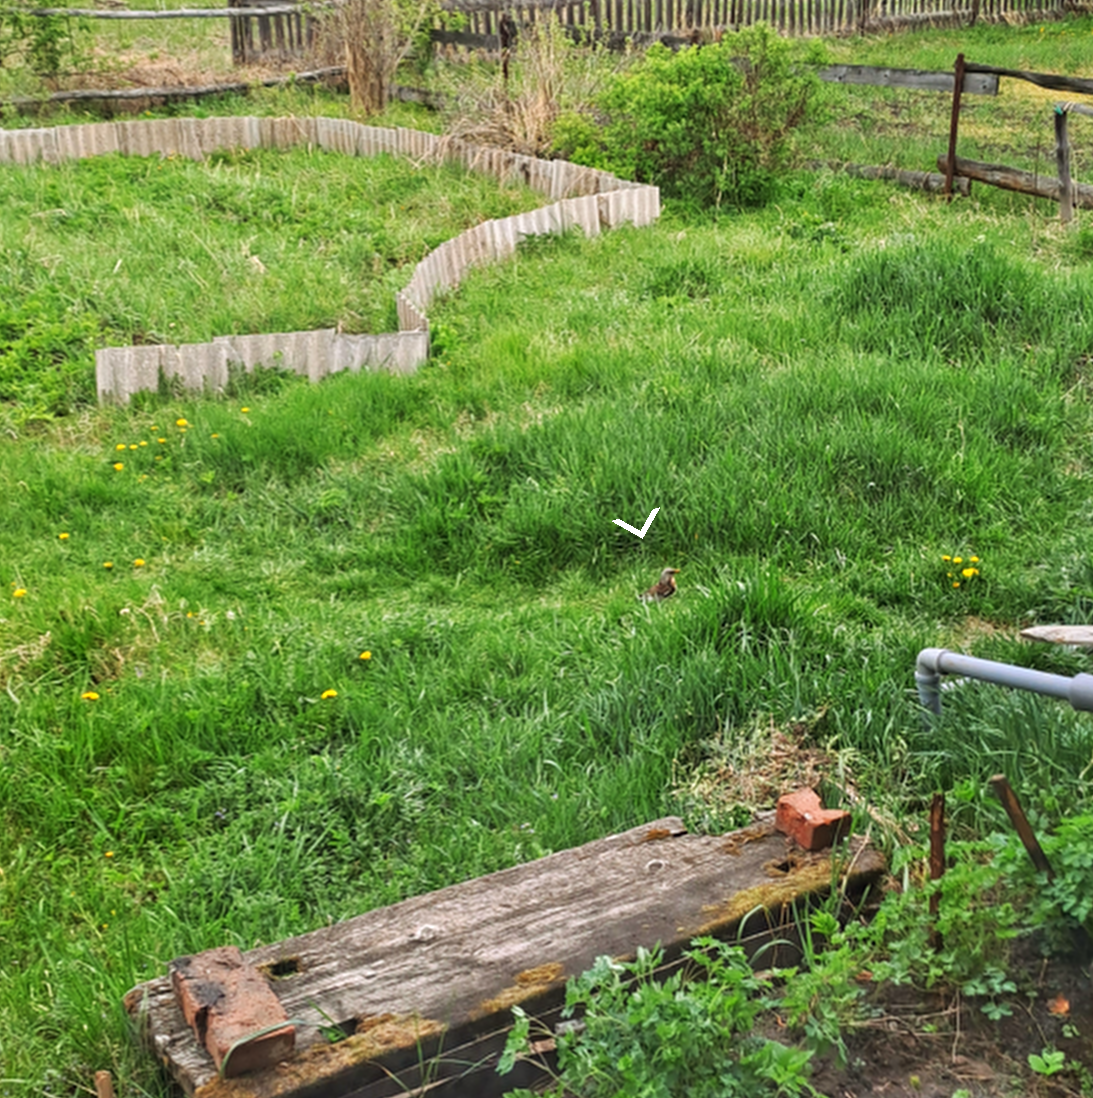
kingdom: Animalia
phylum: Chordata
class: Aves
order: Passeriformes
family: Turdidae
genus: Turdus
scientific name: Turdus pilaris
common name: Fieldfare
